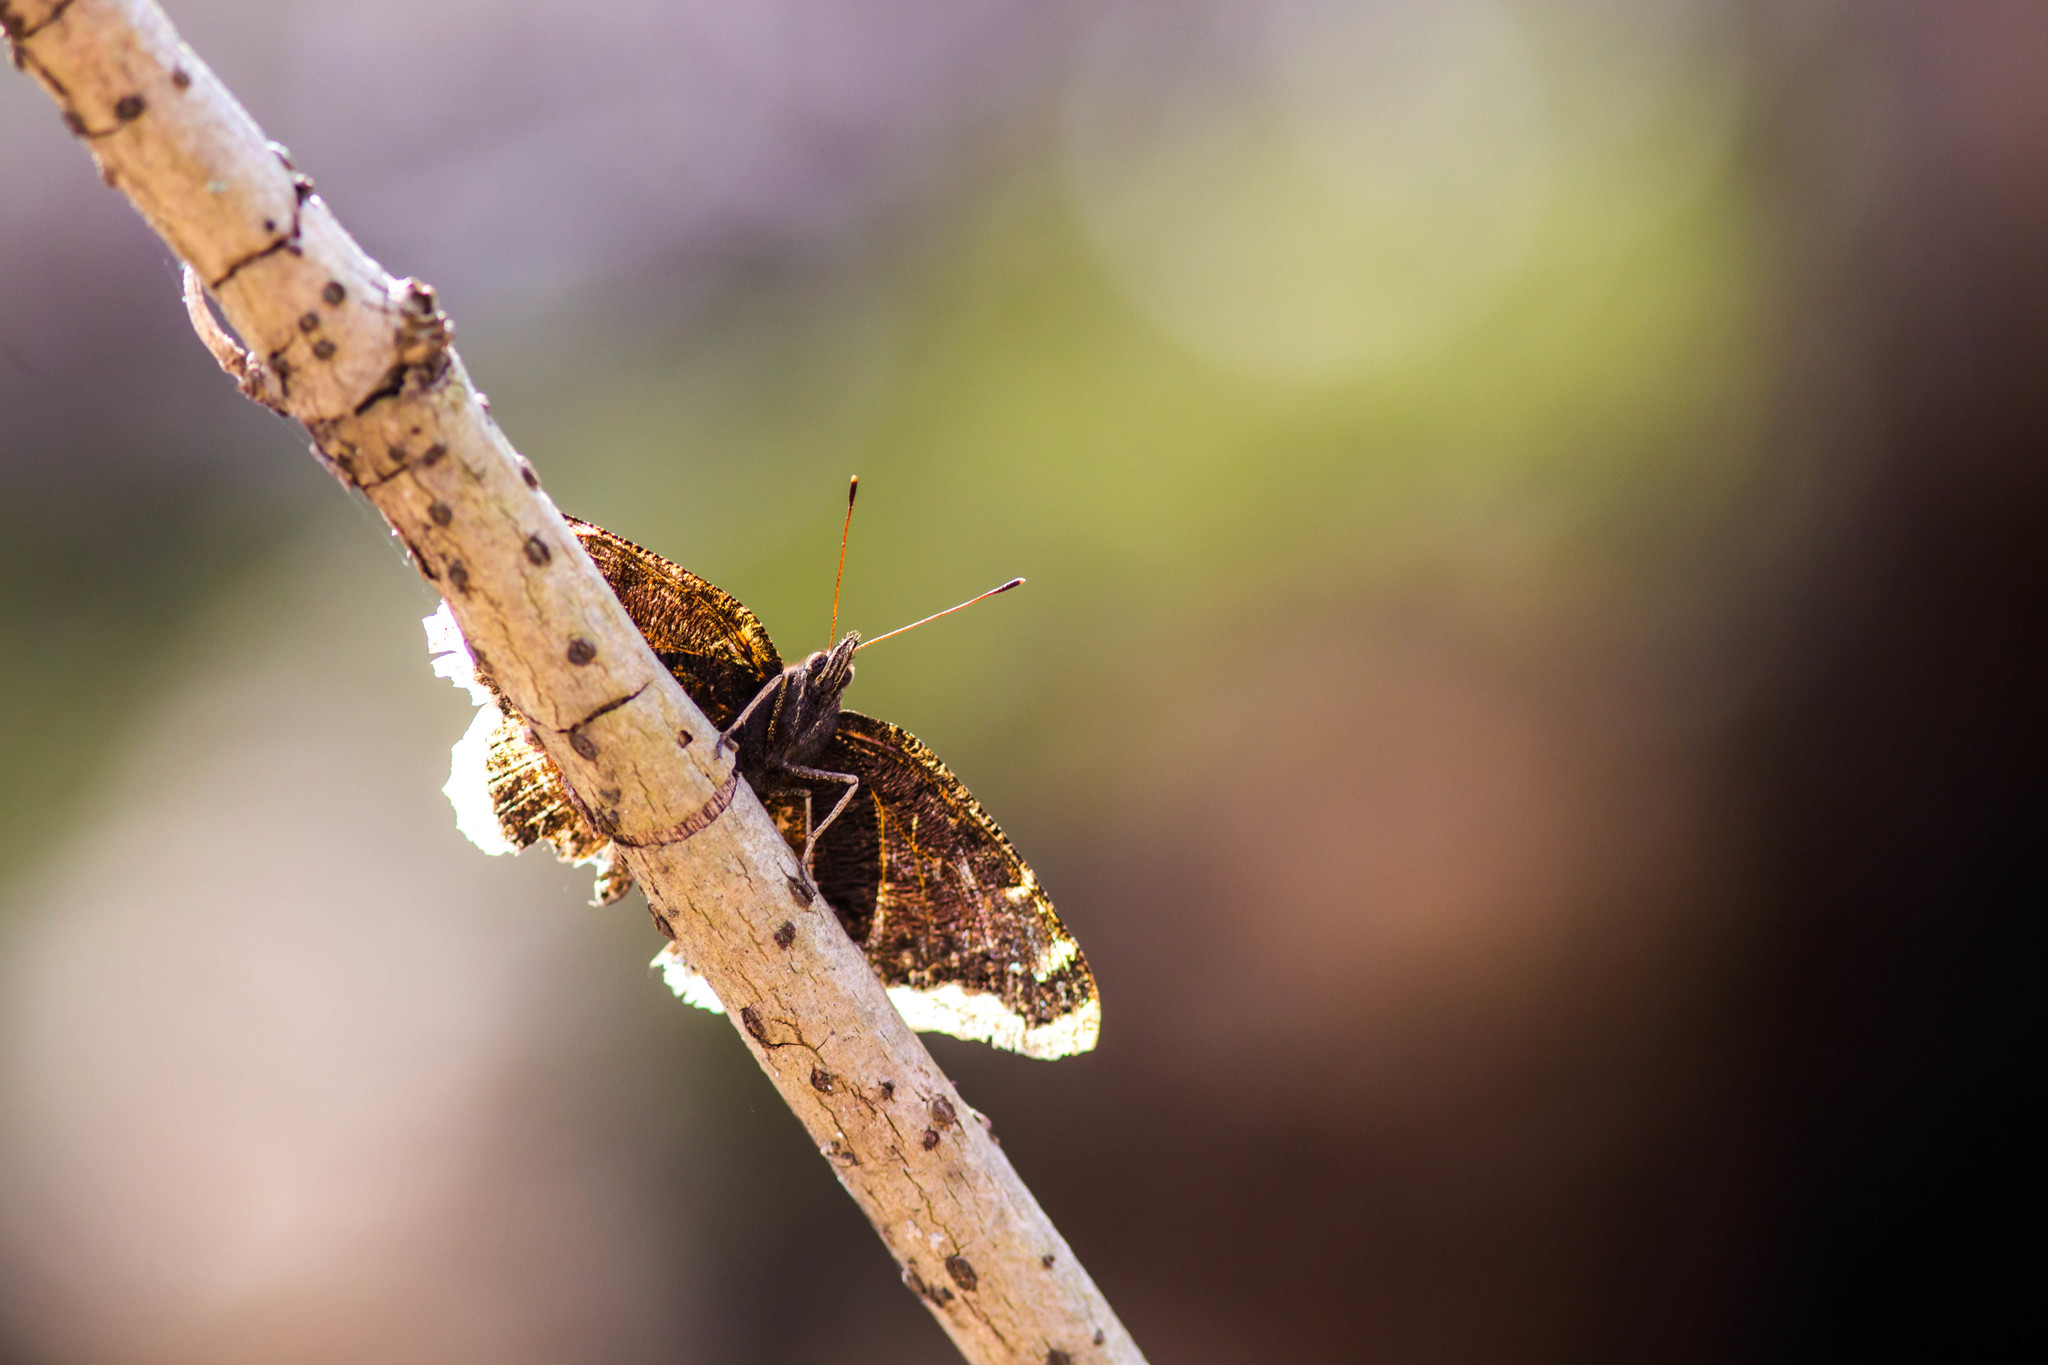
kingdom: Animalia
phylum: Arthropoda
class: Insecta
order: Lepidoptera
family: Nymphalidae
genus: Nymphalis
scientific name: Nymphalis antiopa
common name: Camberwell beauty
